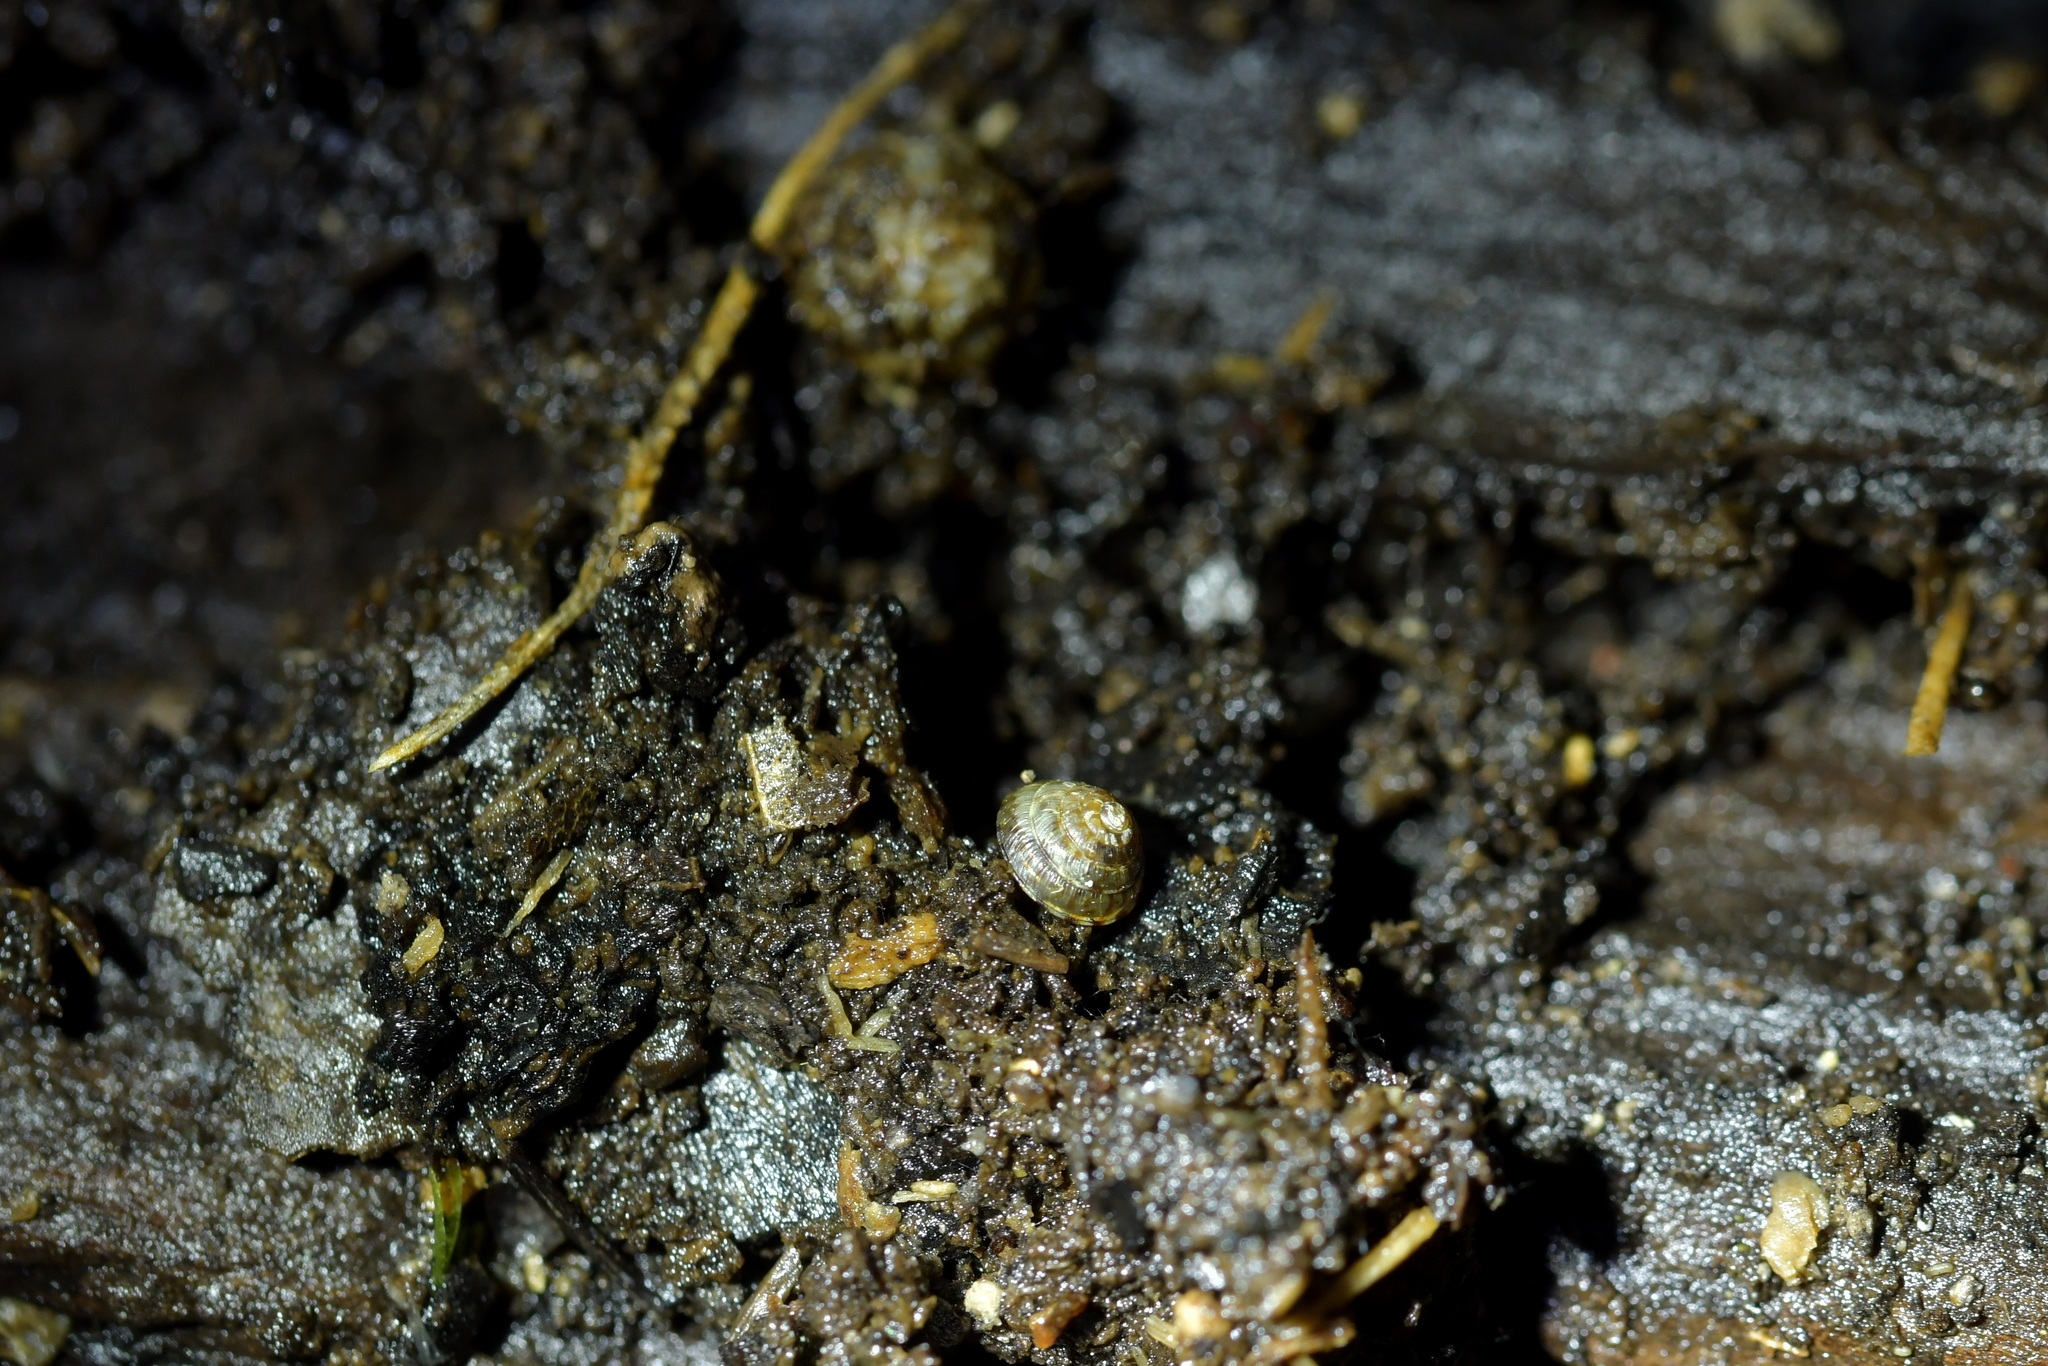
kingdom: Animalia
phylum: Mollusca
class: Gastropoda
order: Stylommatophora
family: Punctidae
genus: Laoma
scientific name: Laoma nerissa
